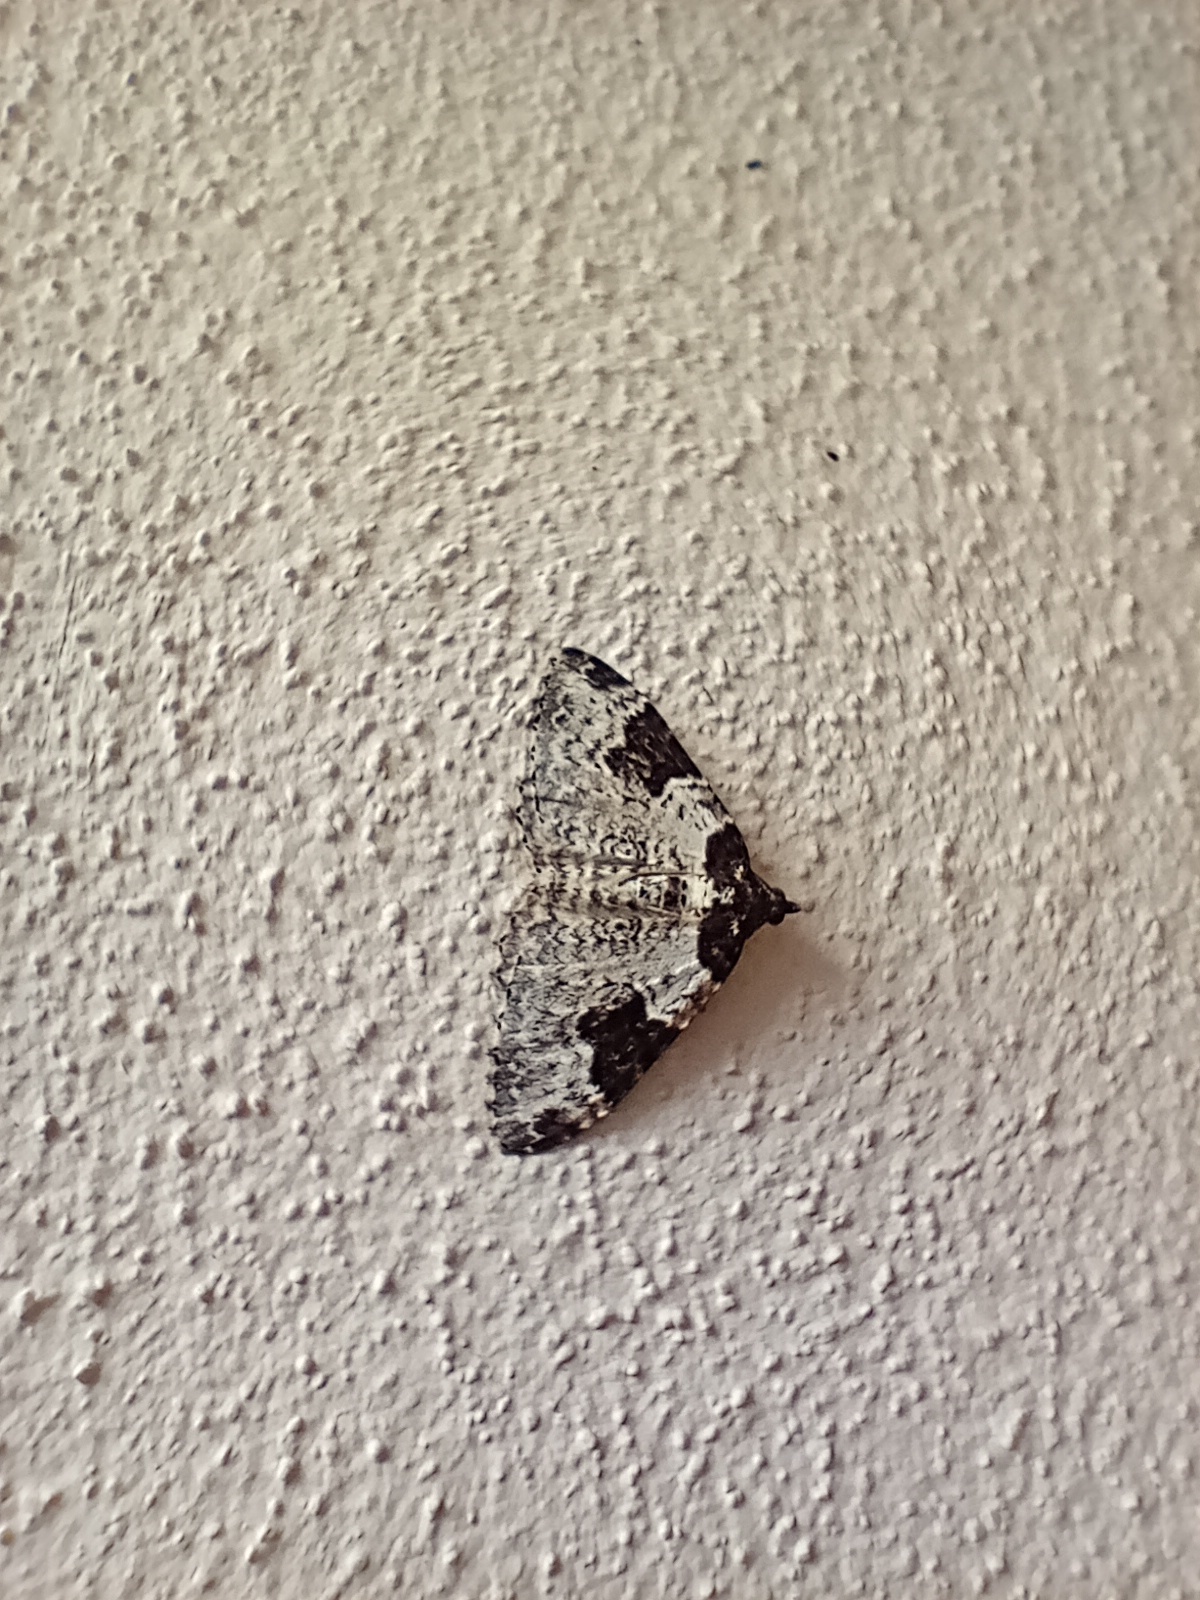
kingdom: Animalia
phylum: Arthropoda
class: Insecta
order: Lepidoptera
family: Geometridae
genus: Xanthorhoe
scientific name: Xanthorhoe fluctuata
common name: Garden carpet
